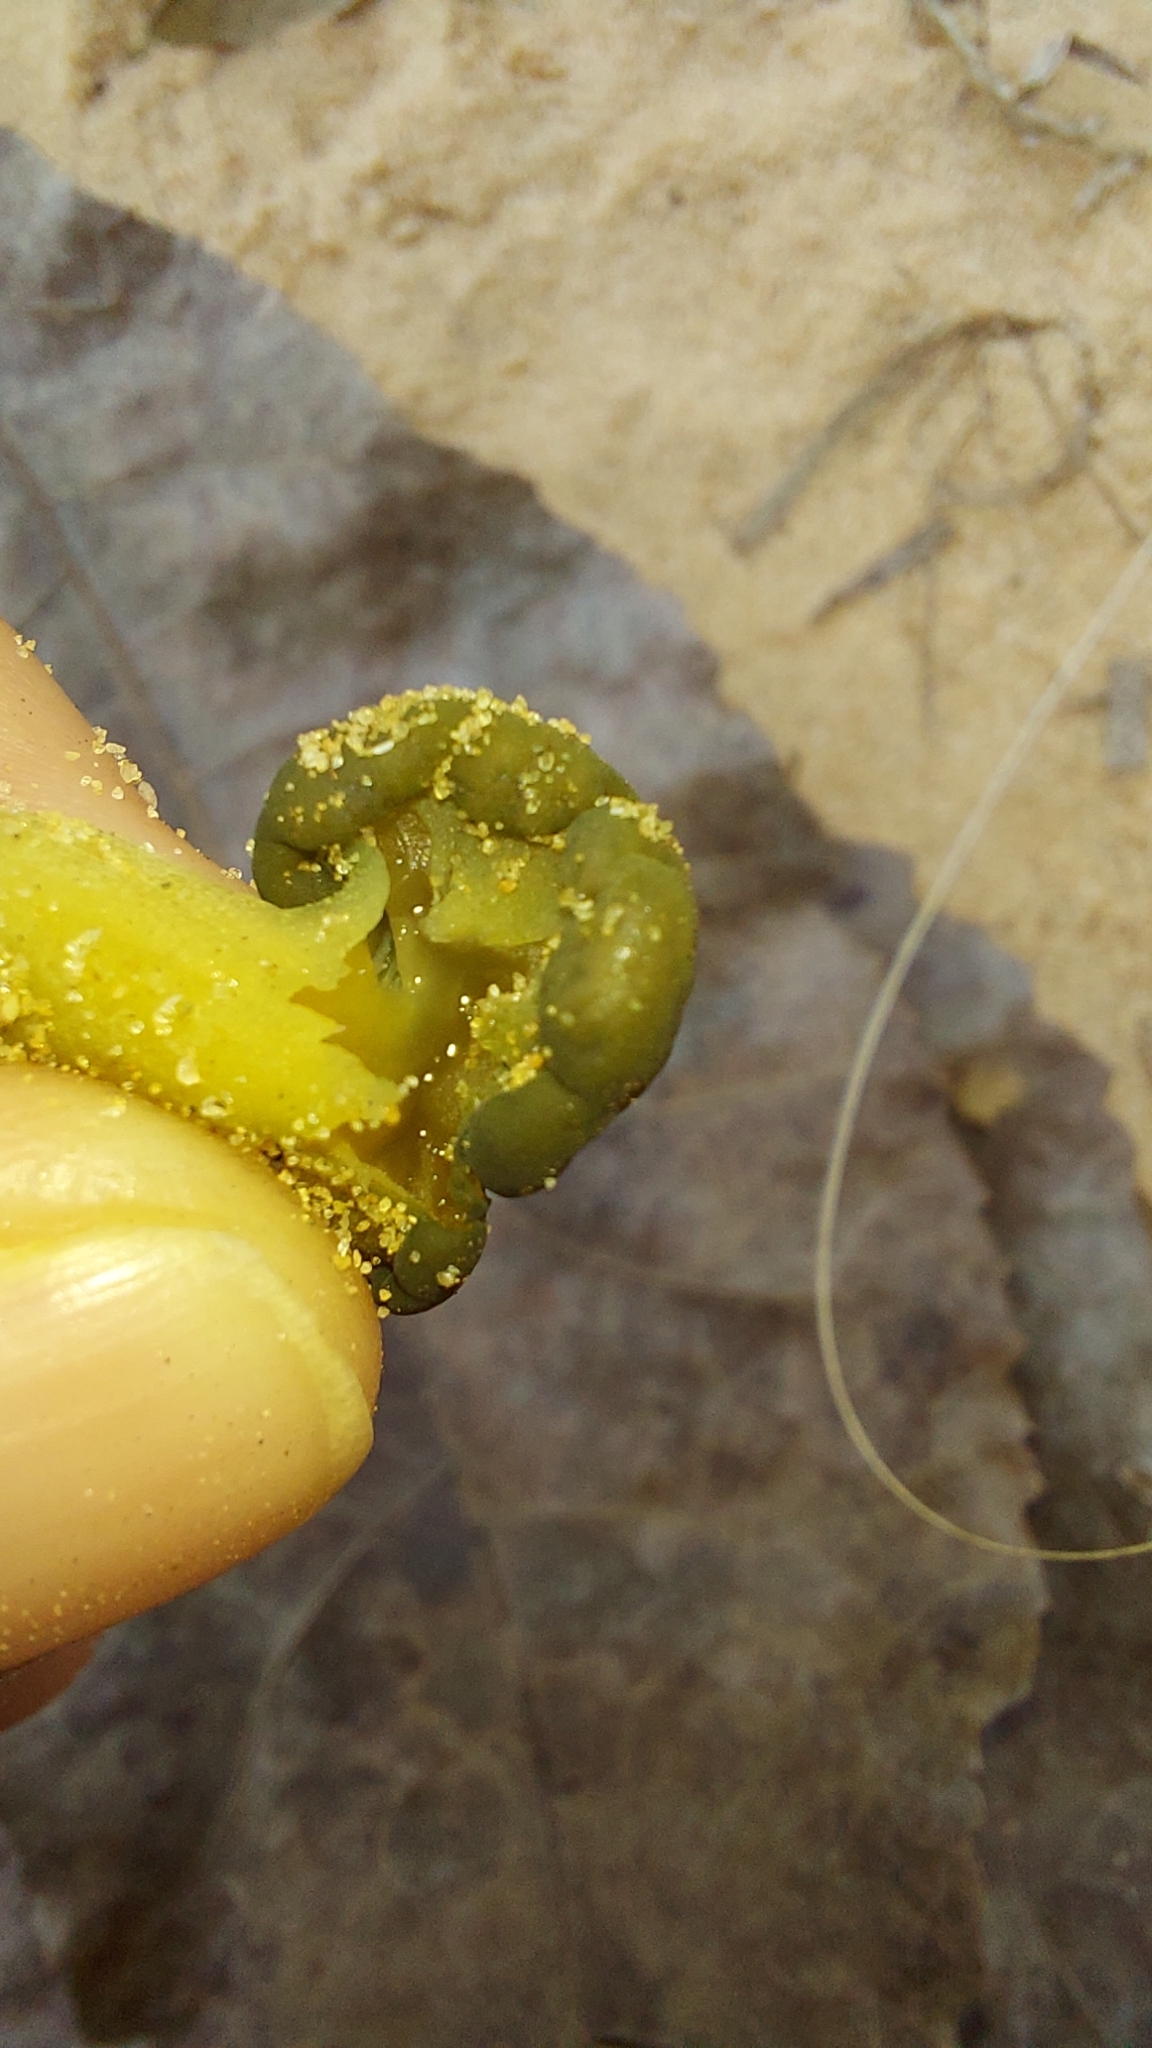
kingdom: Fungi
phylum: Ascomycota
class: Leotiomycetes
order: Leotiales
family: Leotiaceae
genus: Leotia
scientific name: Leotia lubrica
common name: Jellybaby
